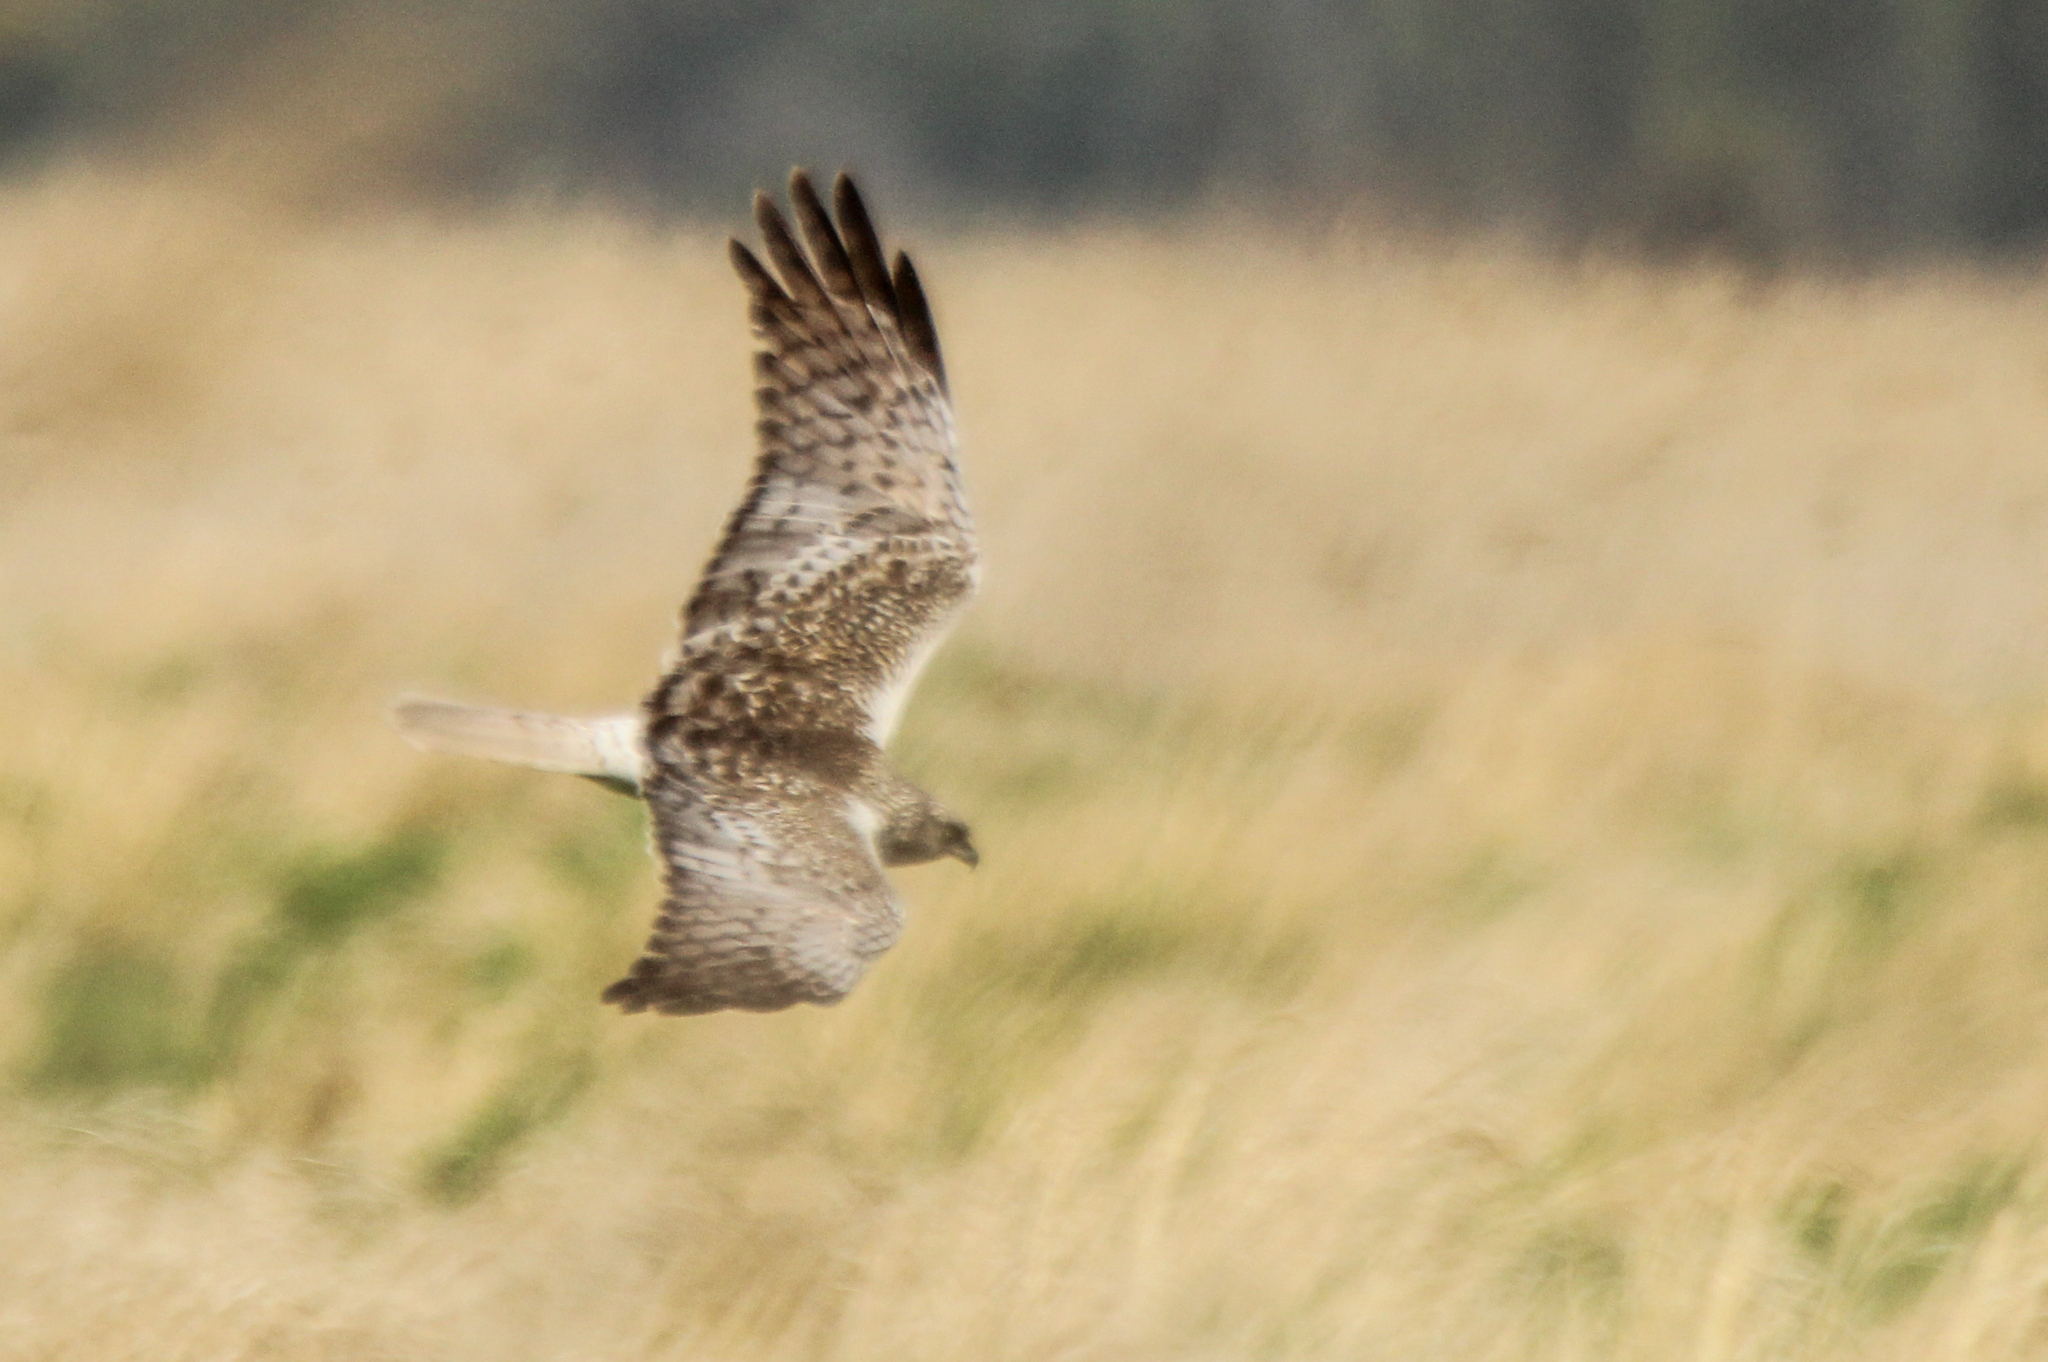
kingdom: Animalia
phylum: Chordata
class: Aves
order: Accipitriformes
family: Accipitridae
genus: Circus
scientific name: Circus spilonotus
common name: Eastern marsh-harrier
